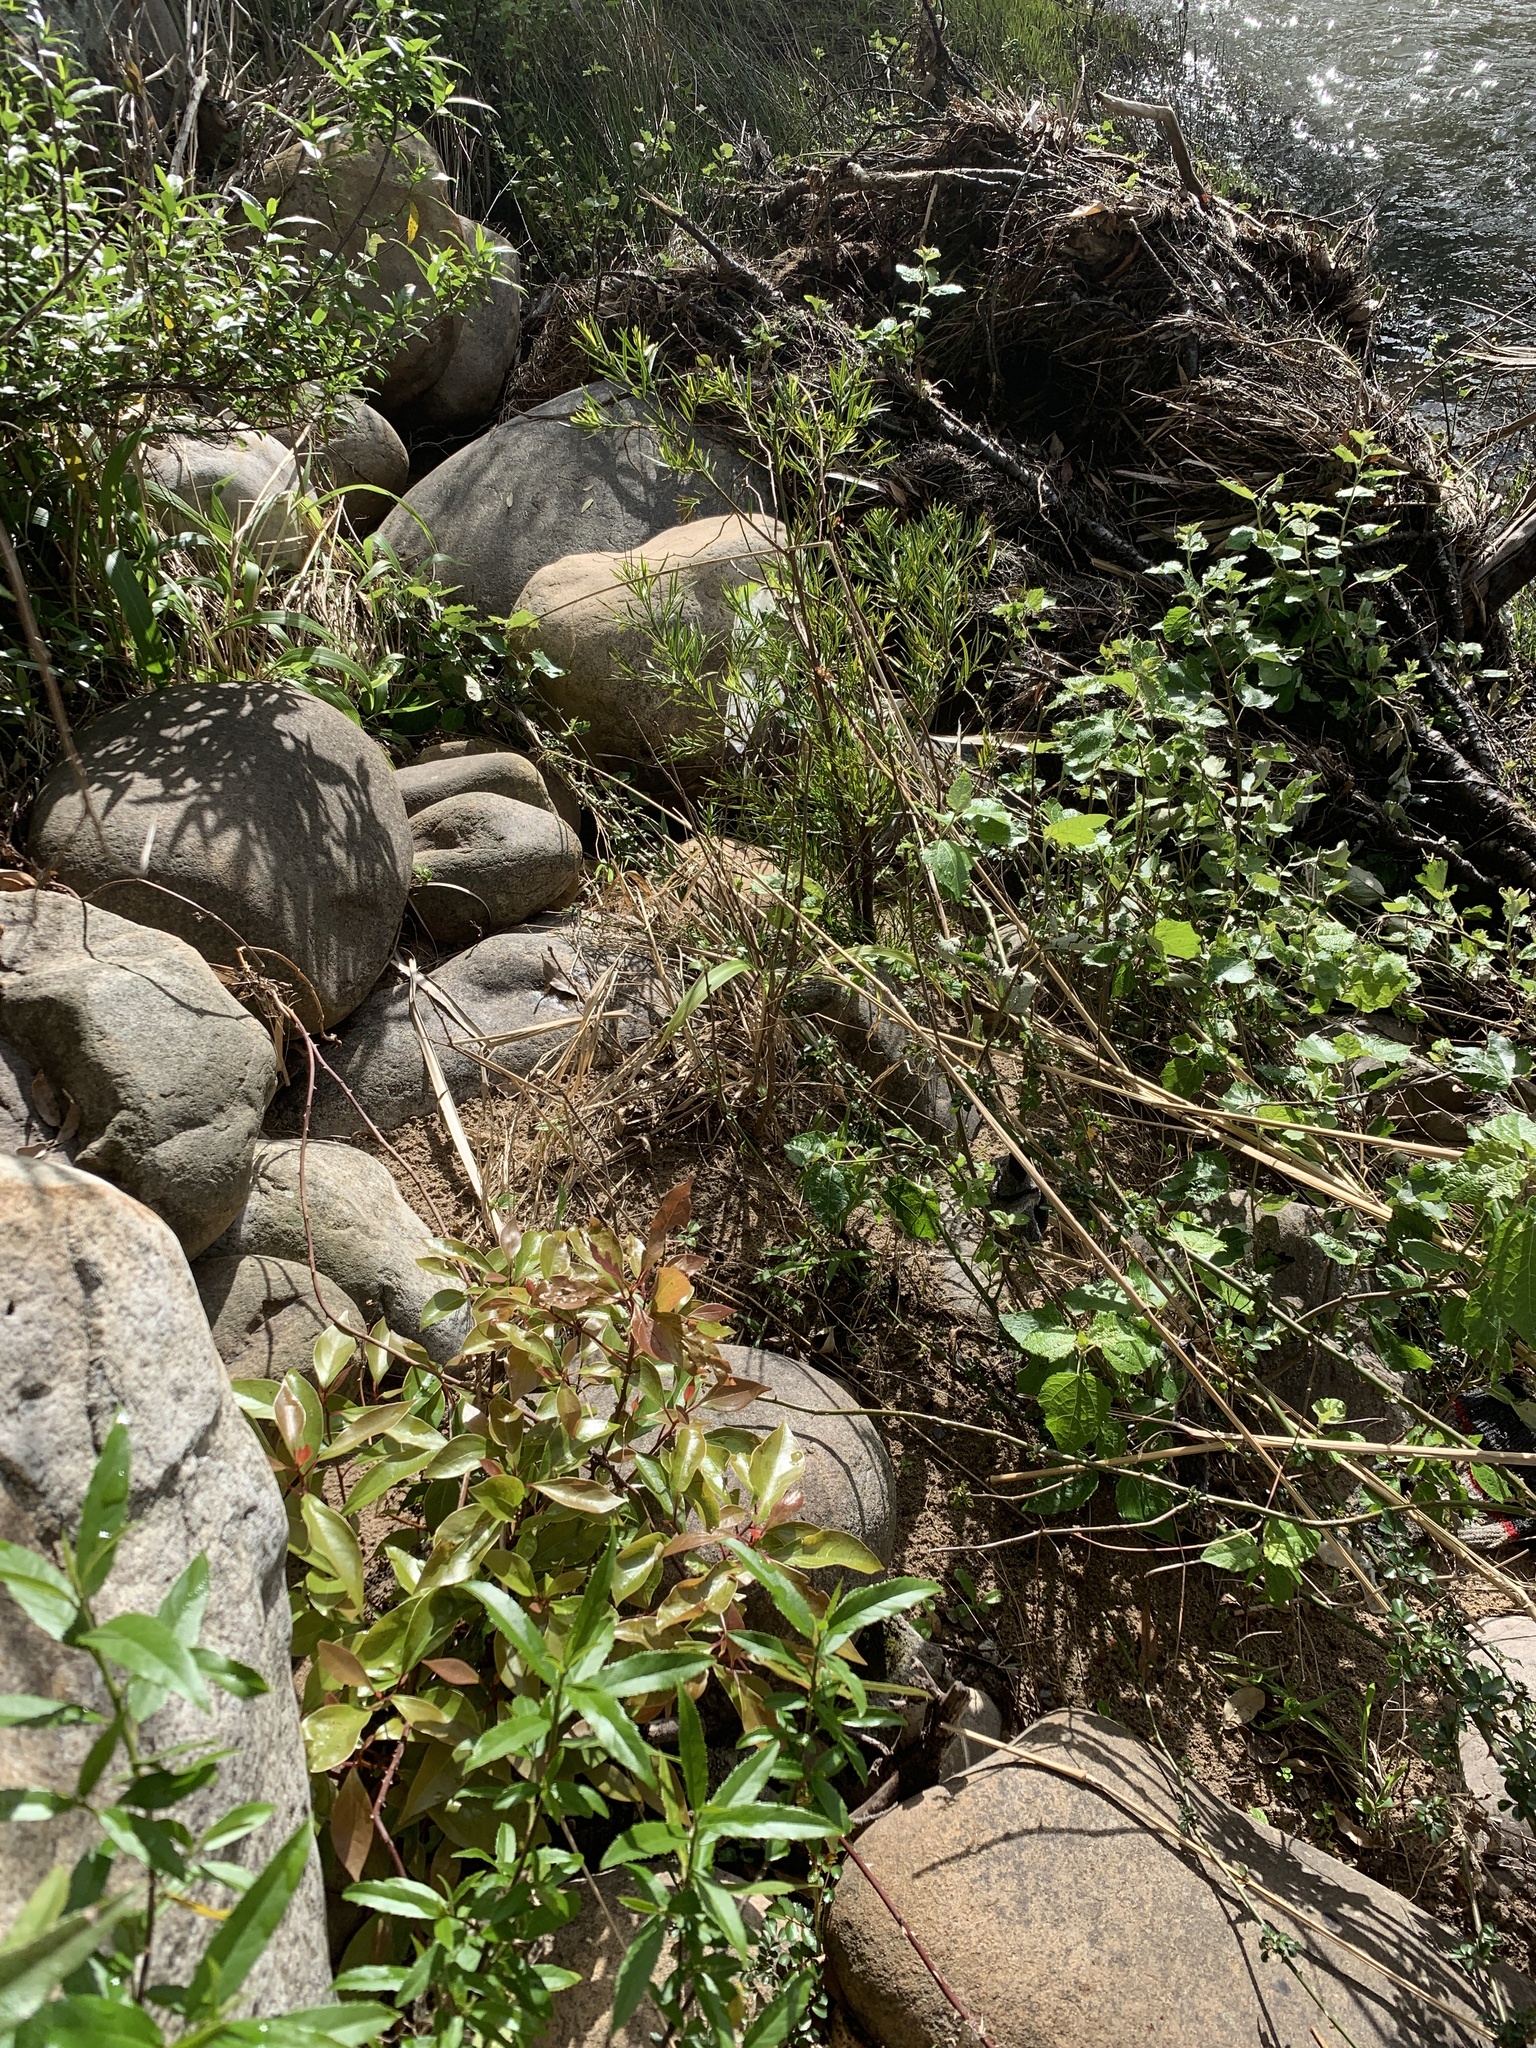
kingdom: Plantae
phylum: Tracheophyta
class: Magnoliopsida
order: Laurales
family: Lauraceae
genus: Cinnamomum
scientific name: Cinnamomum camphora
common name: Camphortree
